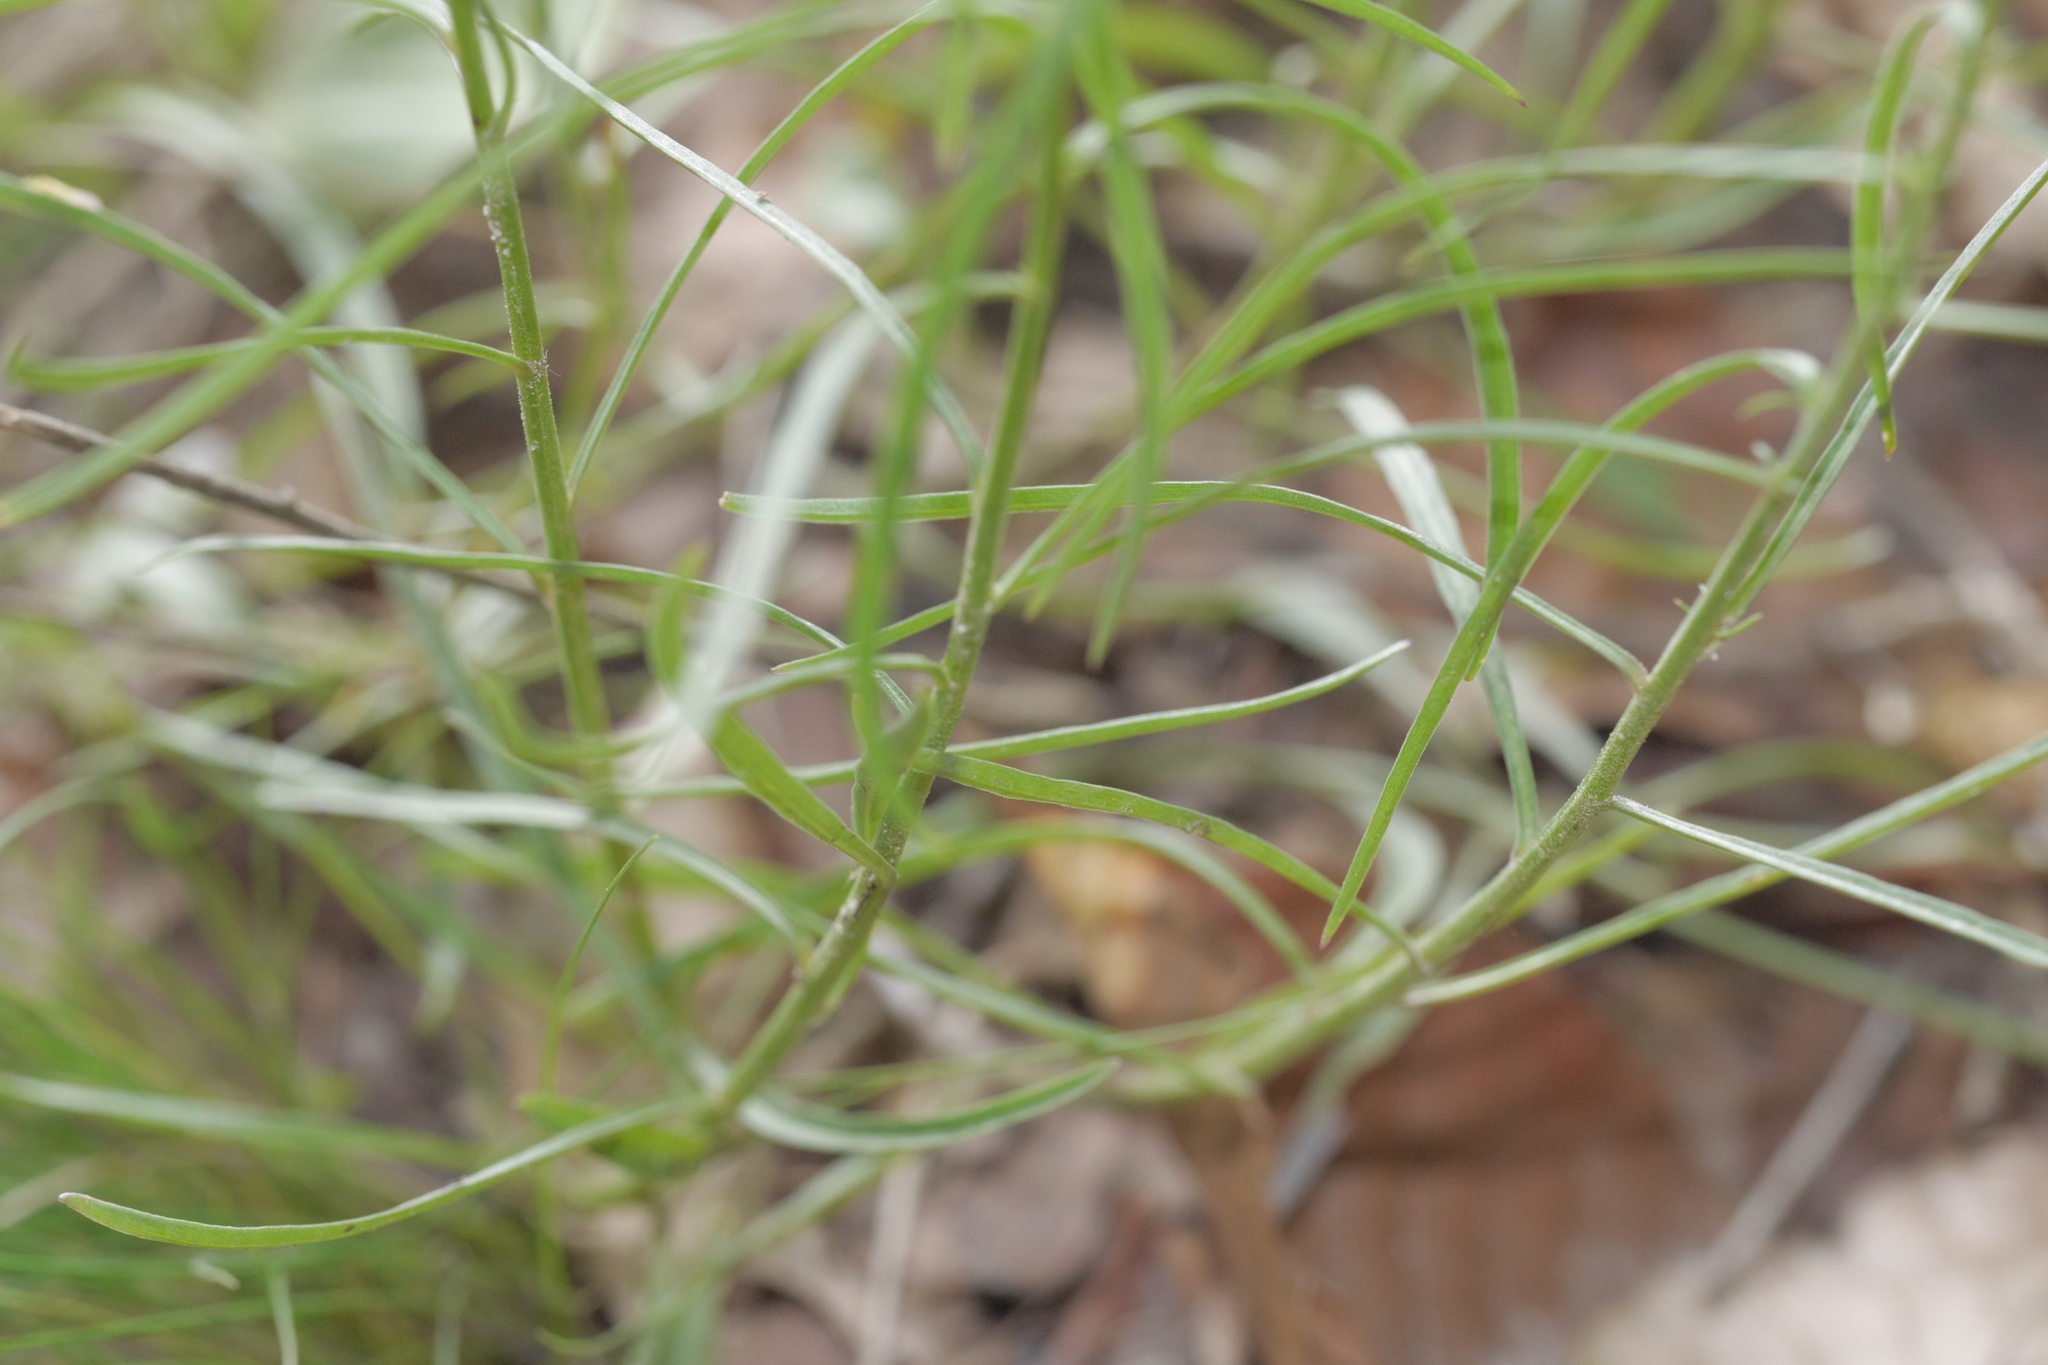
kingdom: Plantae
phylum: Tracheophyta
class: Magnoliopsida
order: Asterales
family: Campanulaceae
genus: Campanula
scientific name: Campanula rotundifolia
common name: Harebell
